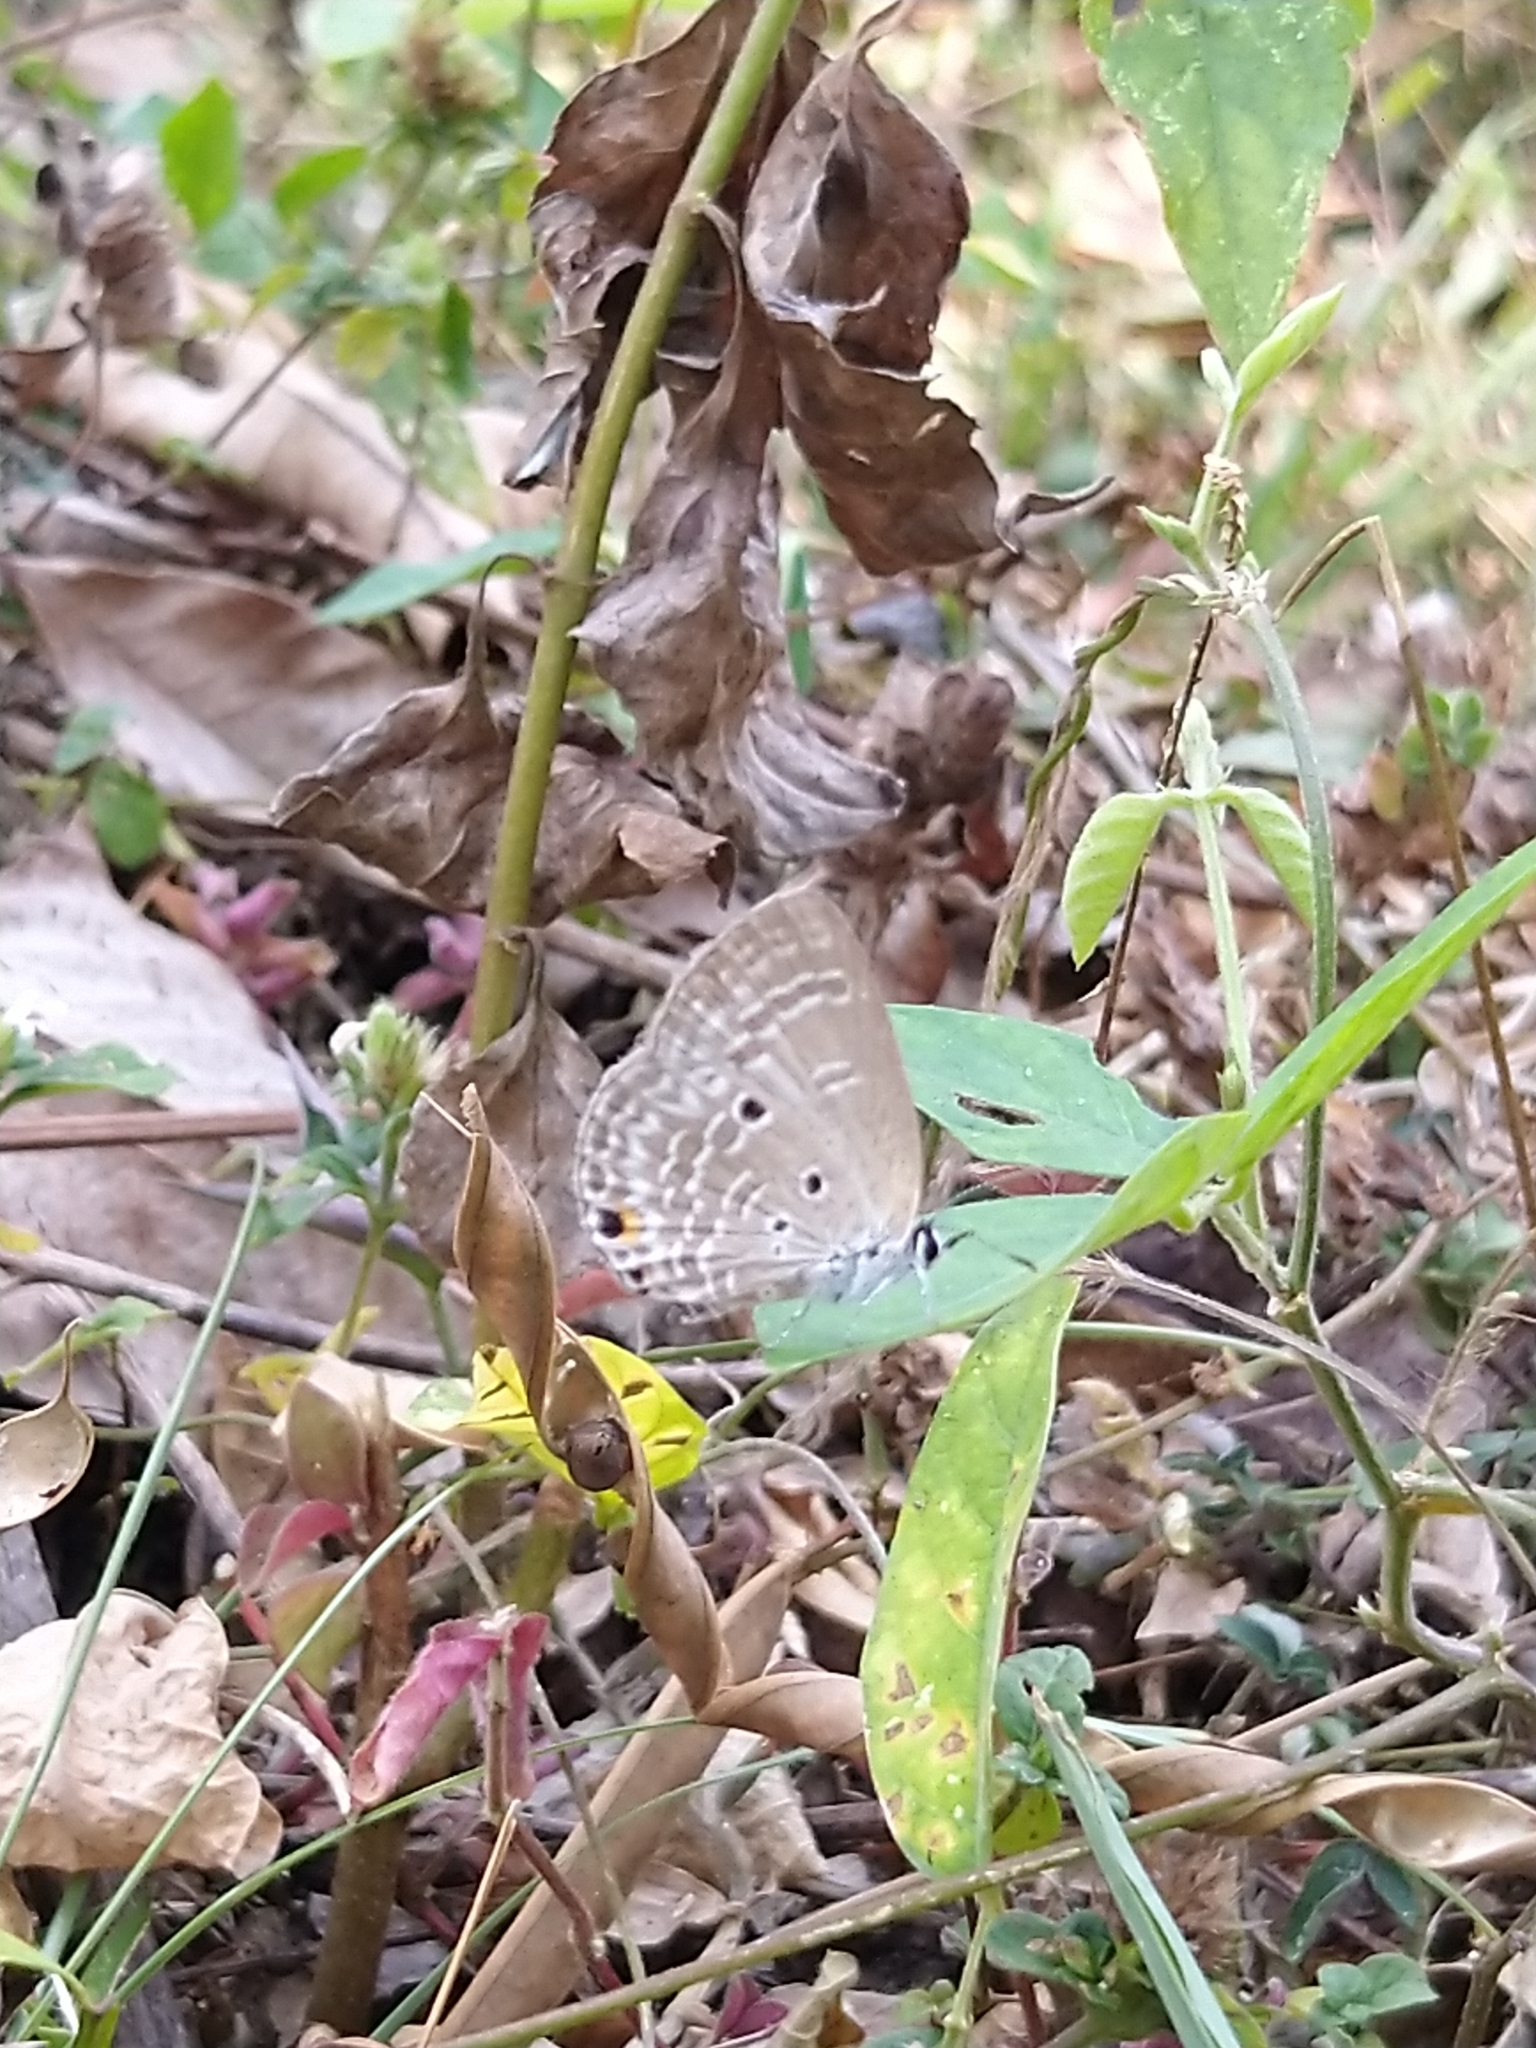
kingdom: Animalia
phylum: Arthropoda
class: Insecta
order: Lepidoptera
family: Lycaenidae
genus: Luthrodes
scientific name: Luthrodes pandava
